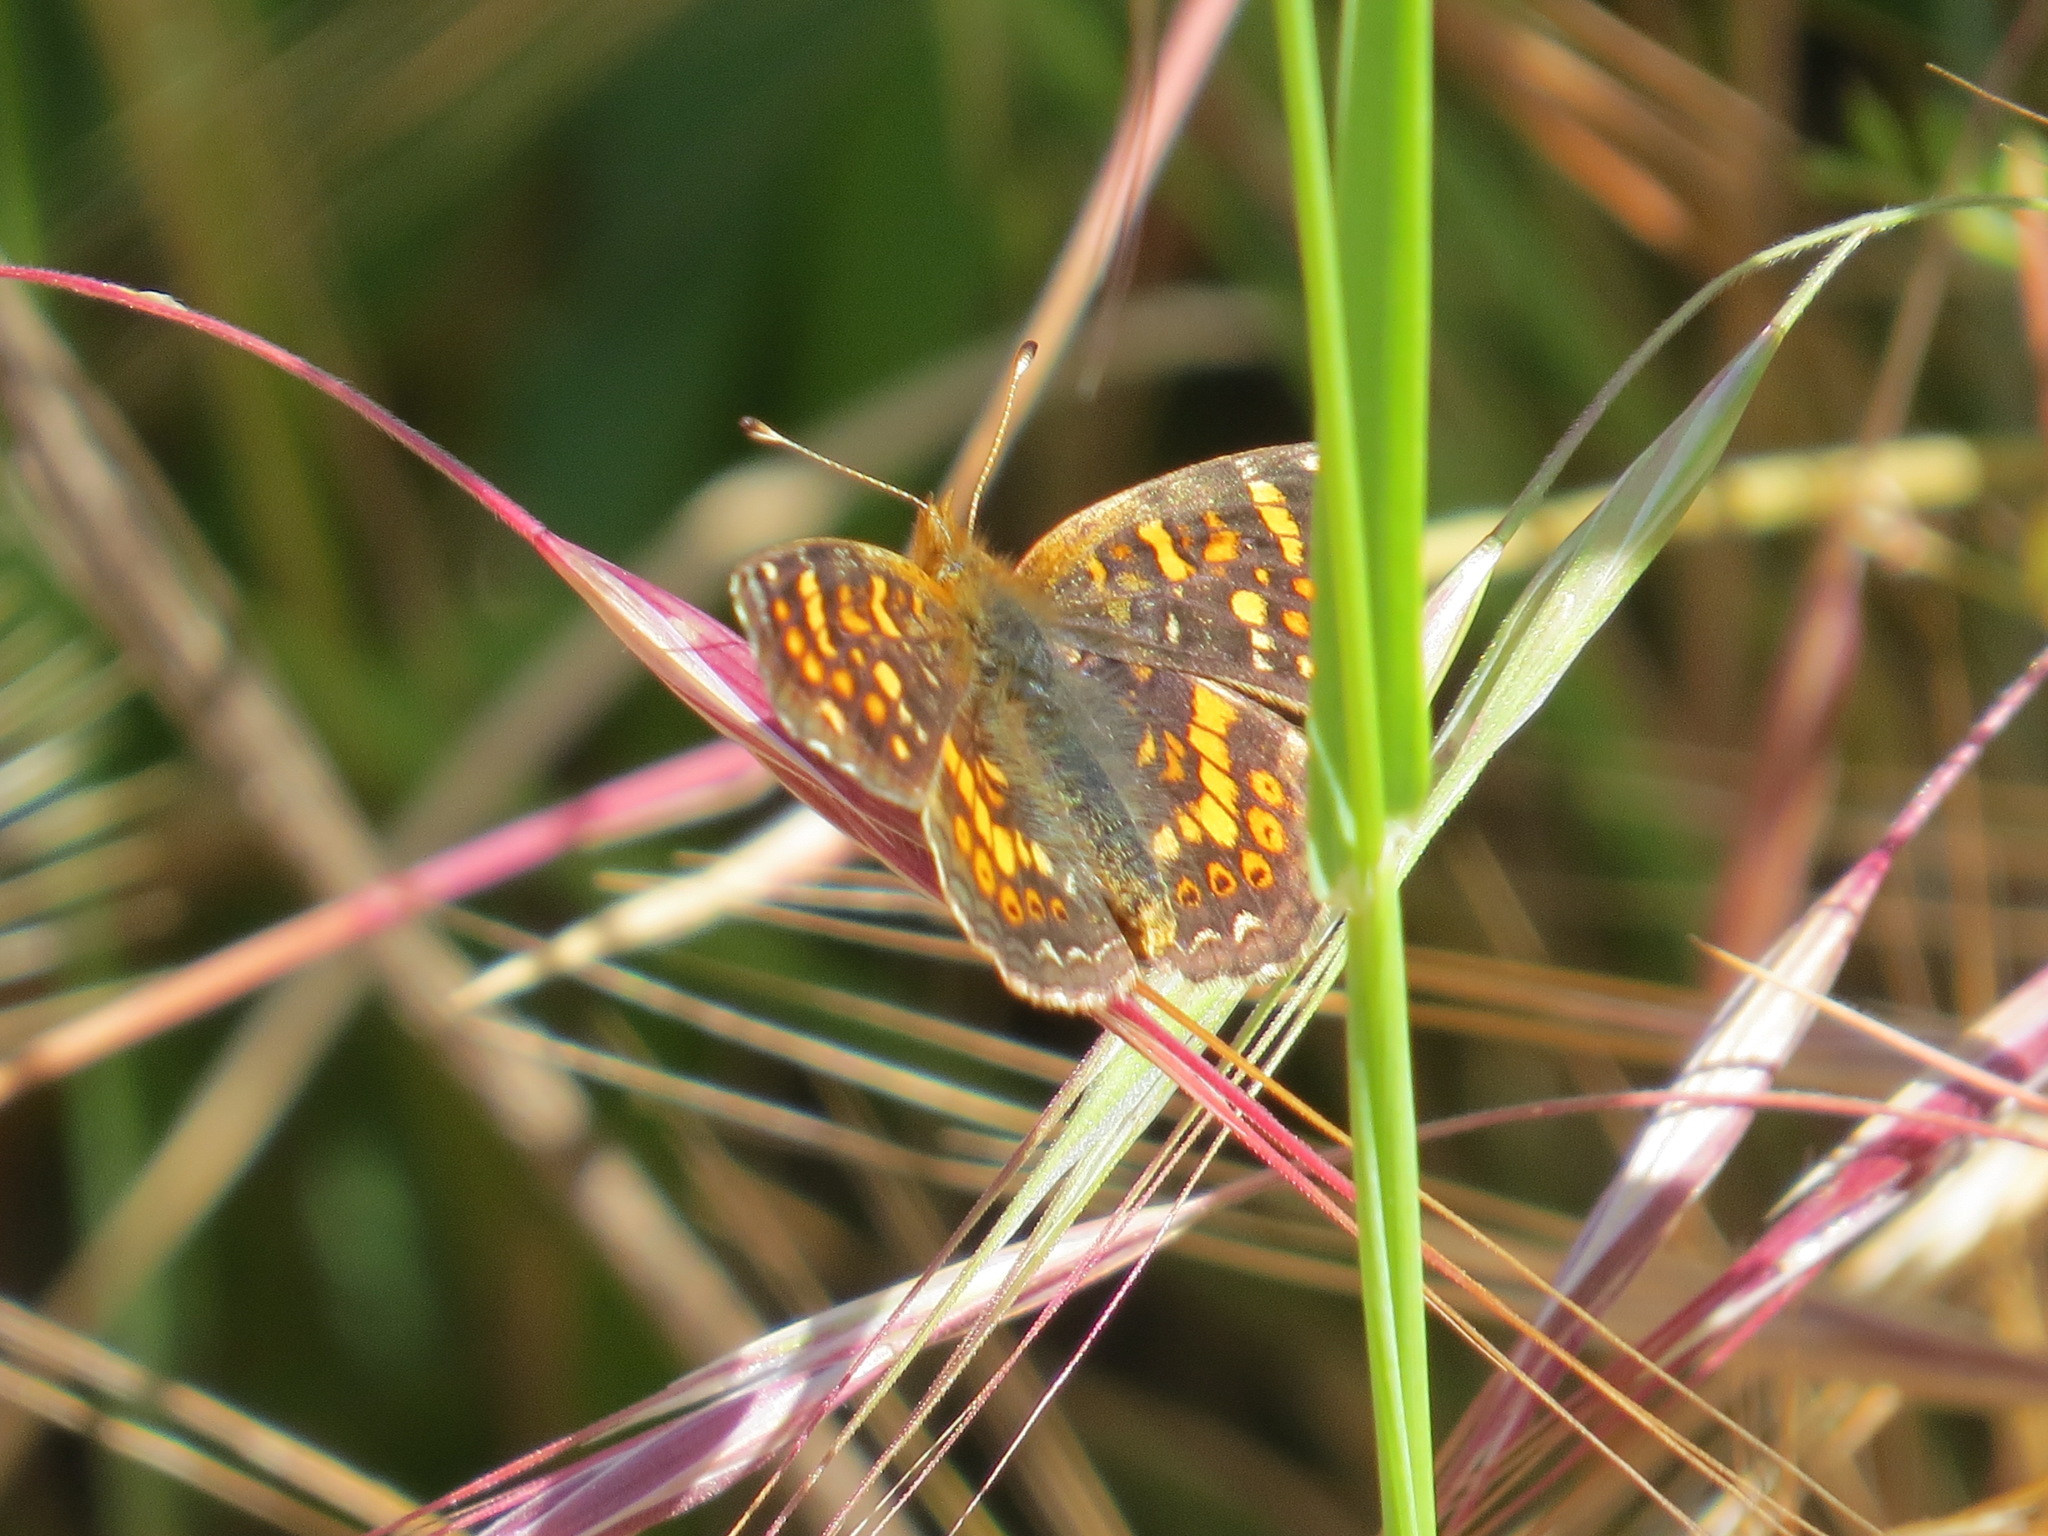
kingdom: Animalia
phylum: Arthropoda
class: Insecta
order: Lepidoptera
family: Nymphalidae
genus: Phyciodes
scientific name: Phyciodes tharos
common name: Pearl crescent
